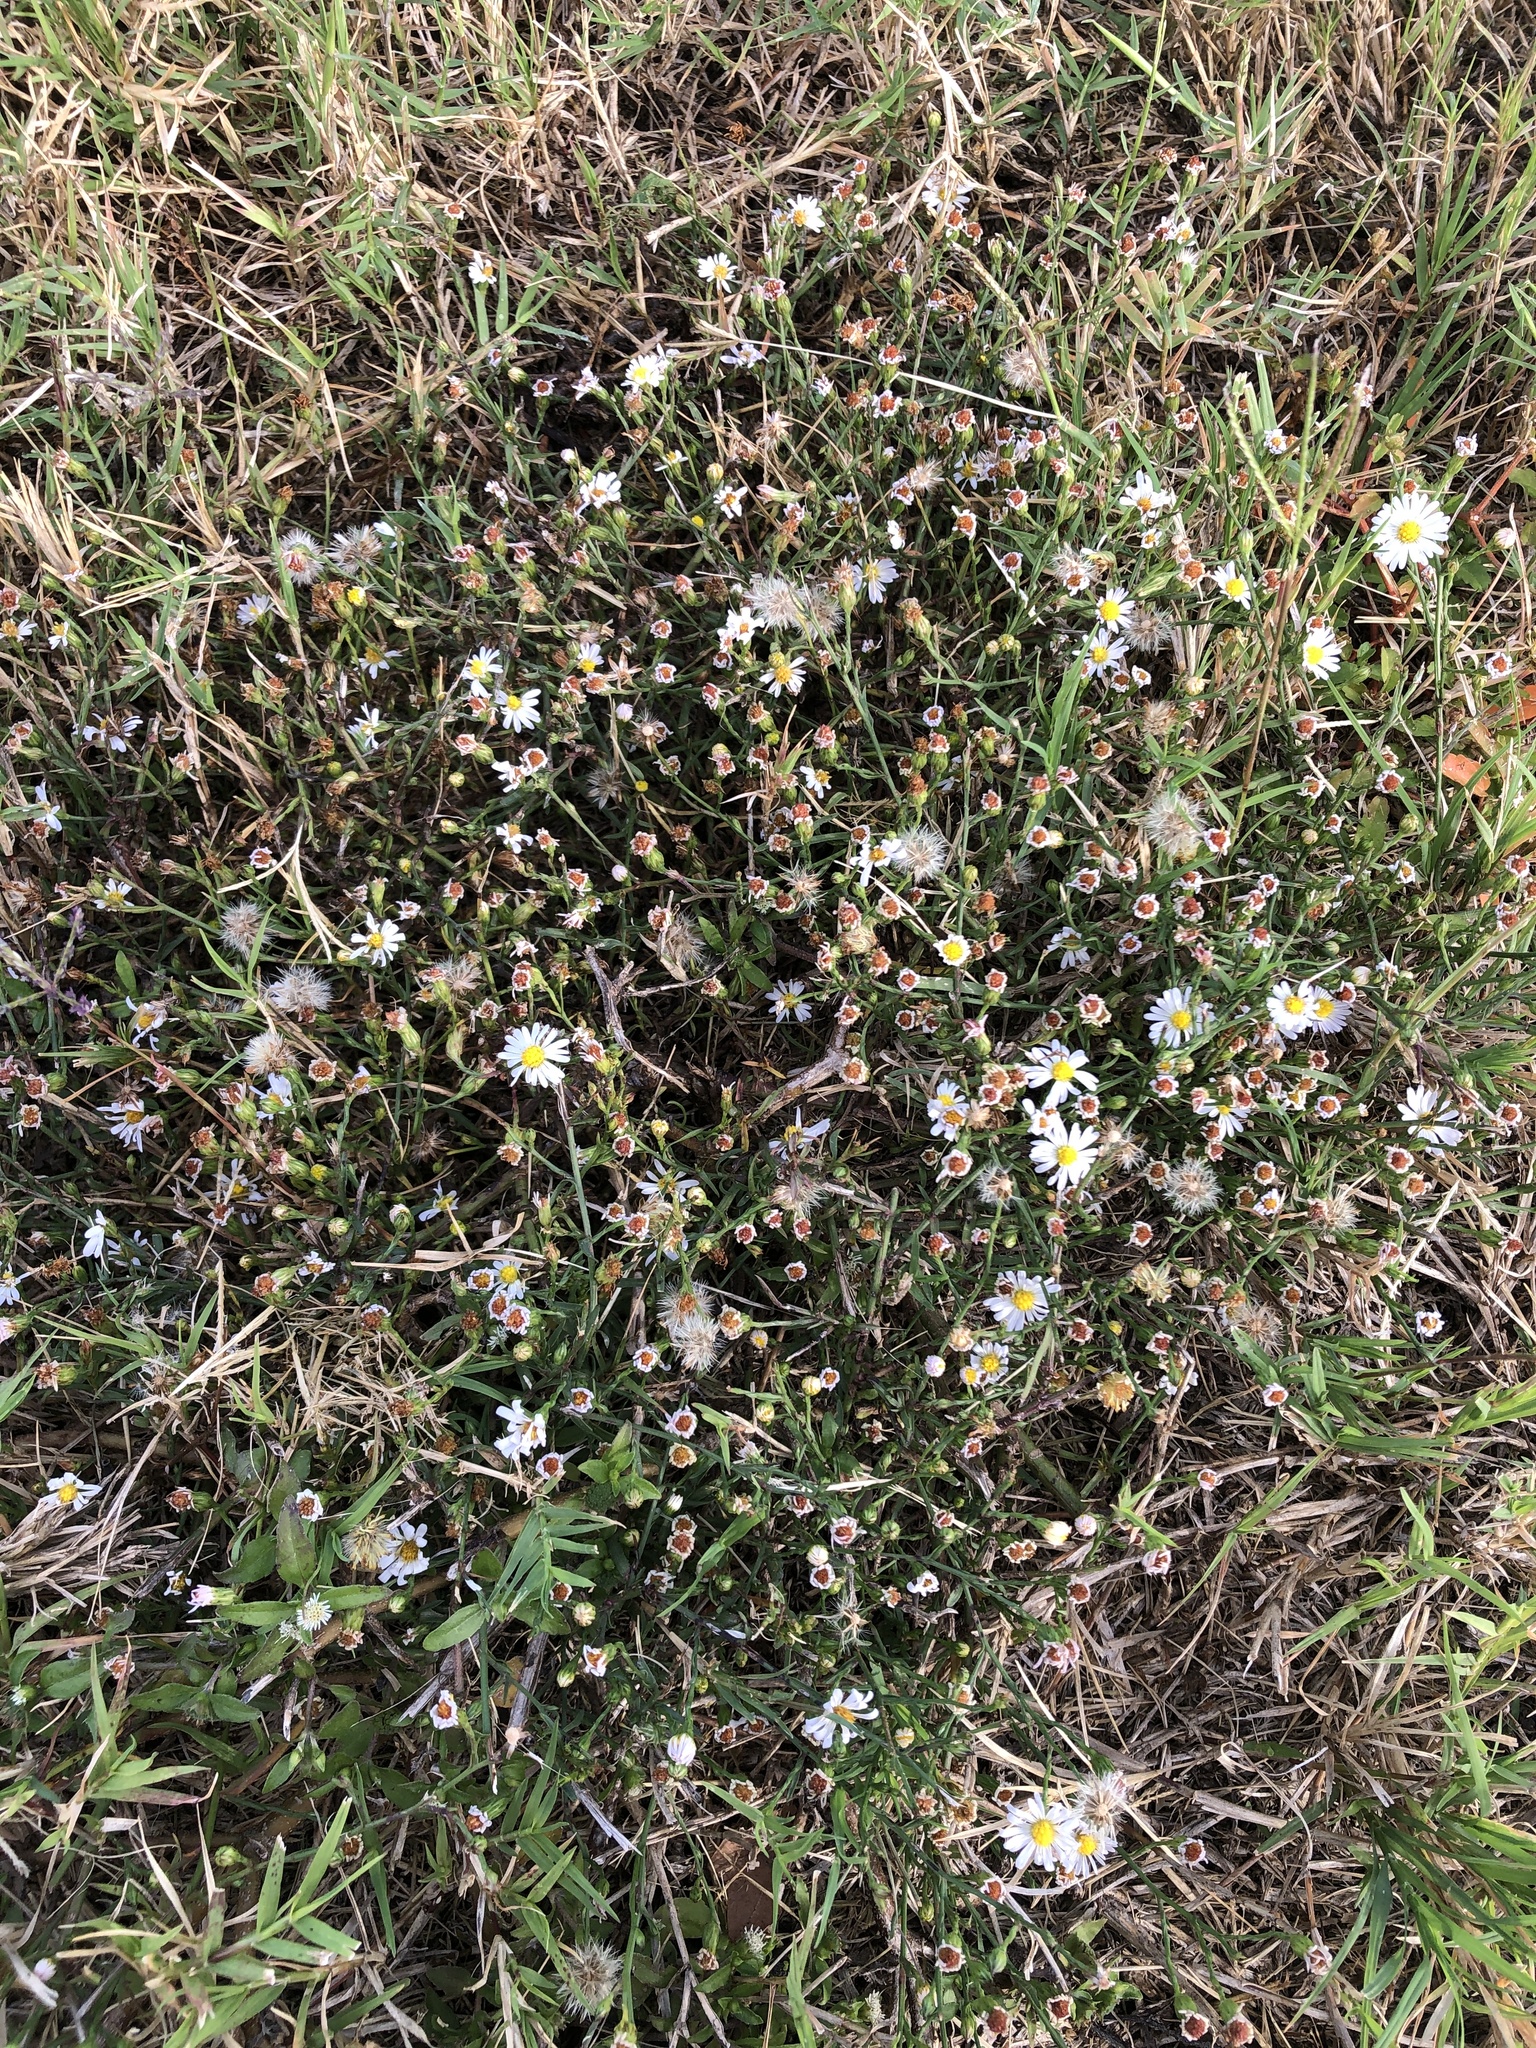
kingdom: Plantae
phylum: Tracheophyta
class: Magnoliopsida
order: Asterales
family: Asteraceae
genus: Symphyotrichum
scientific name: Symphyotrichum divaricatum
